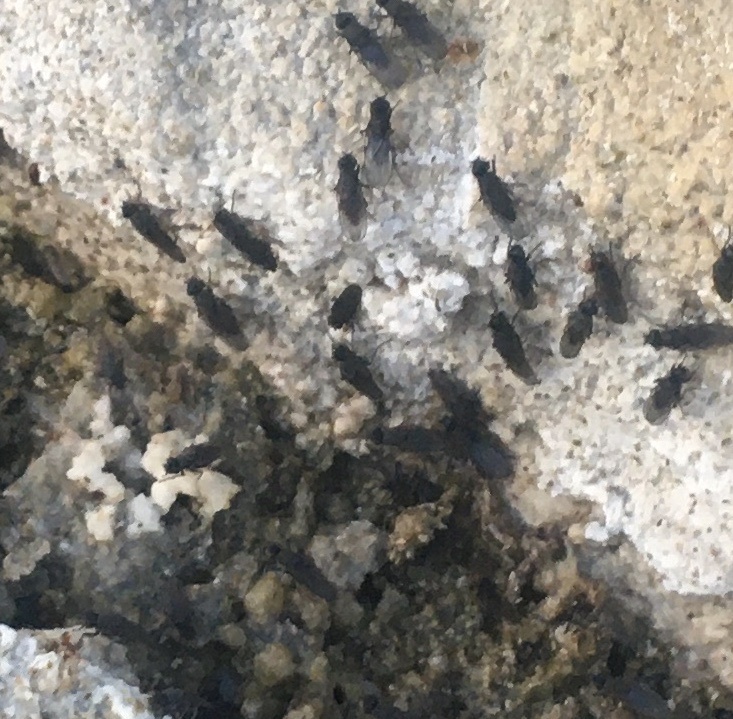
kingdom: Animalia
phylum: Arthropoda
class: Insecta
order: Diptera
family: Ephydridae
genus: Cirrula
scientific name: Cirrula hians
